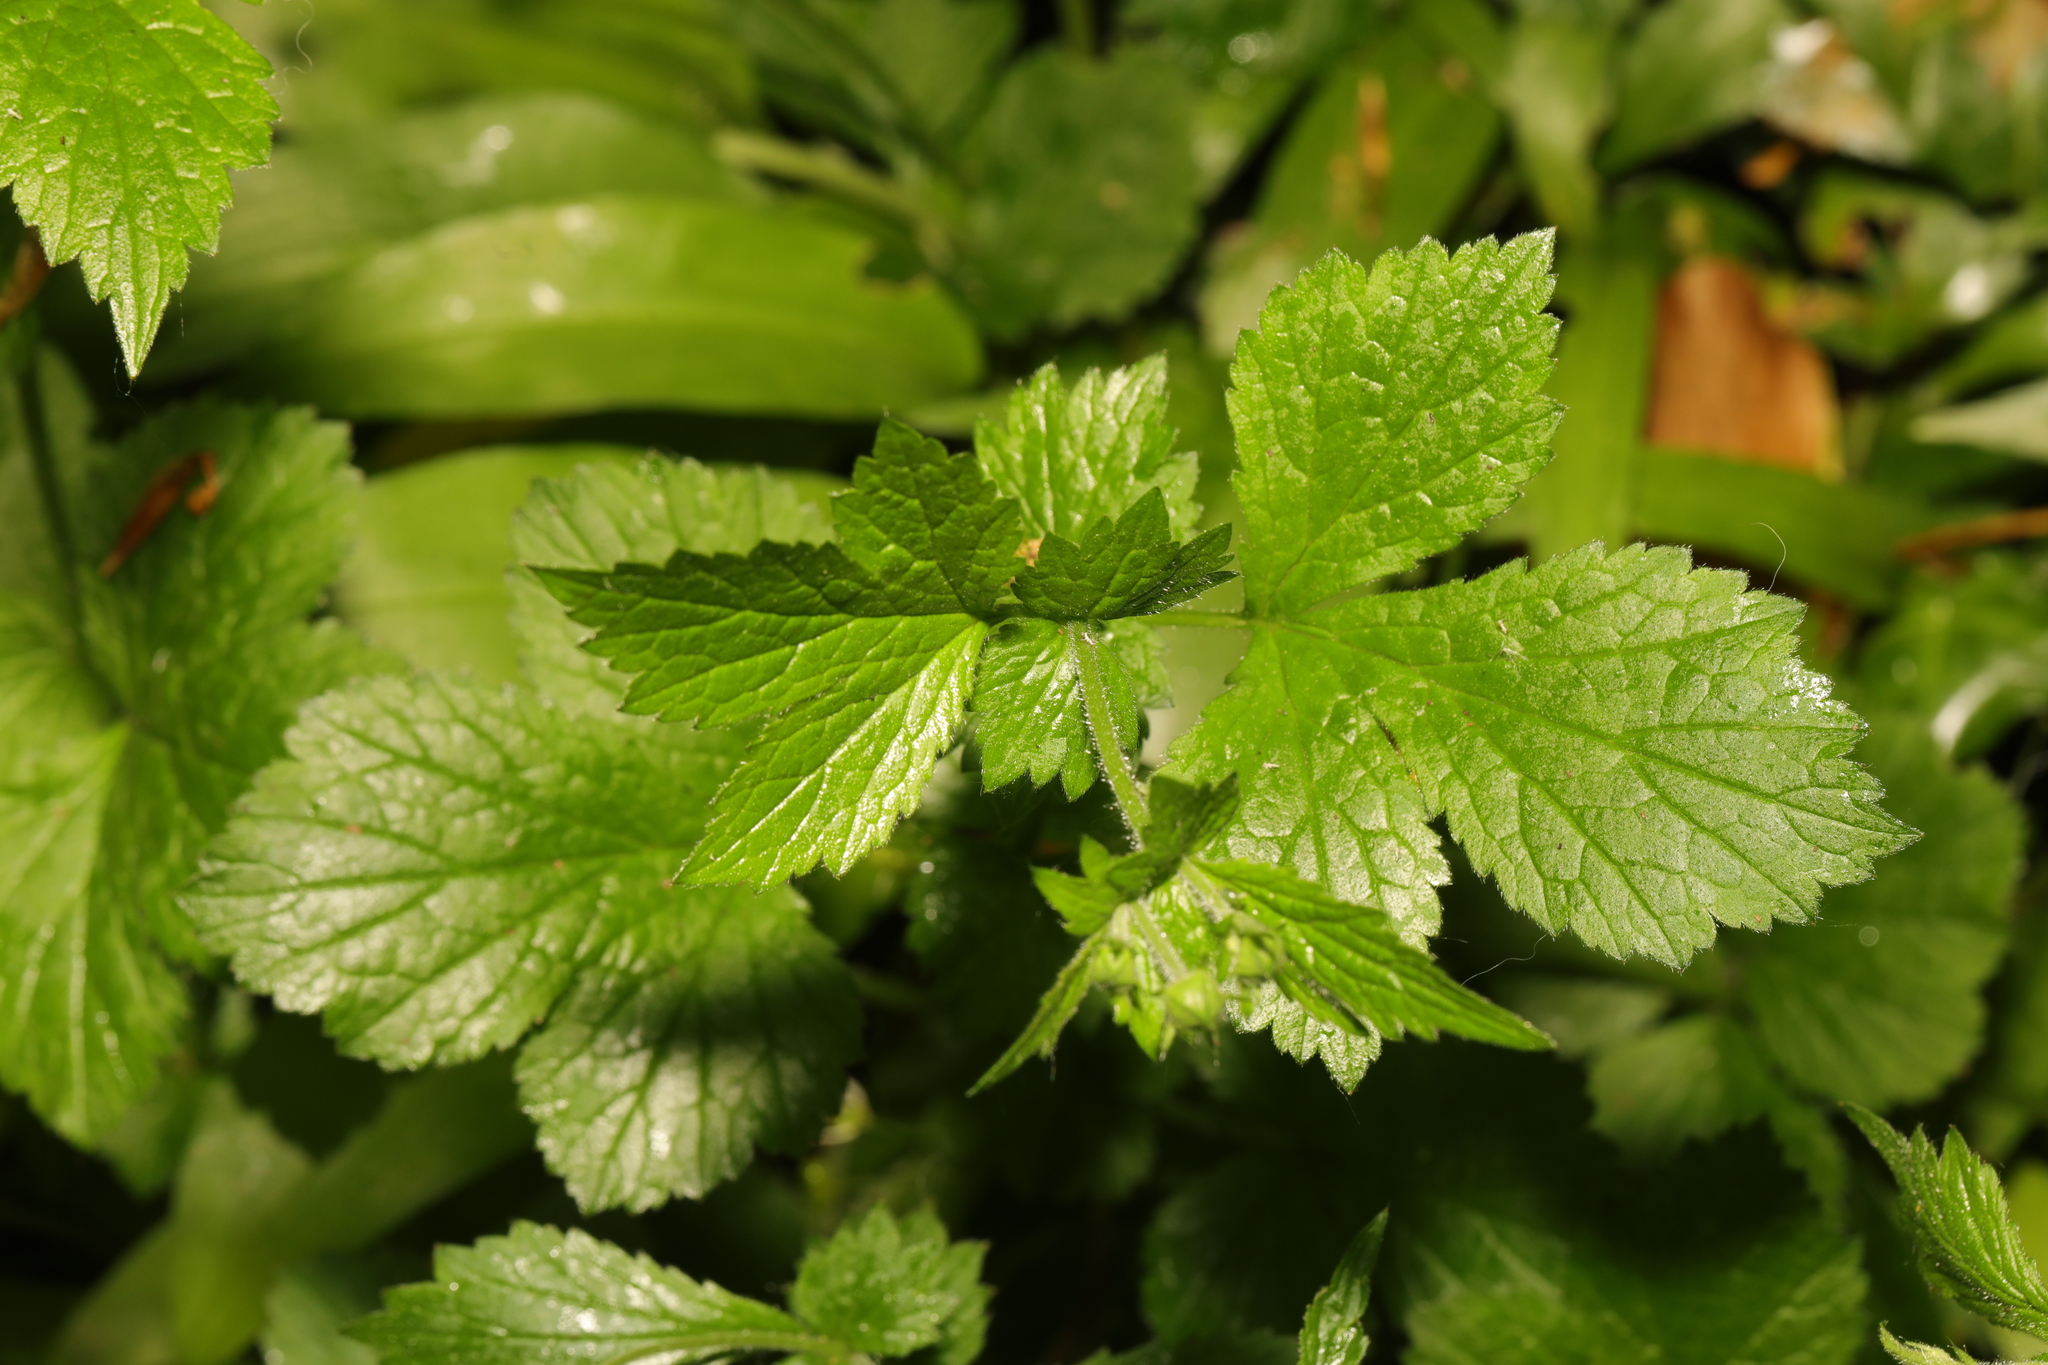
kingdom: Plantae
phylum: Tracheophyta
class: Magnoliopsida
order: Rosales
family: Rosaceae
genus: Geum
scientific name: Geum urbanum
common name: Wood avens
